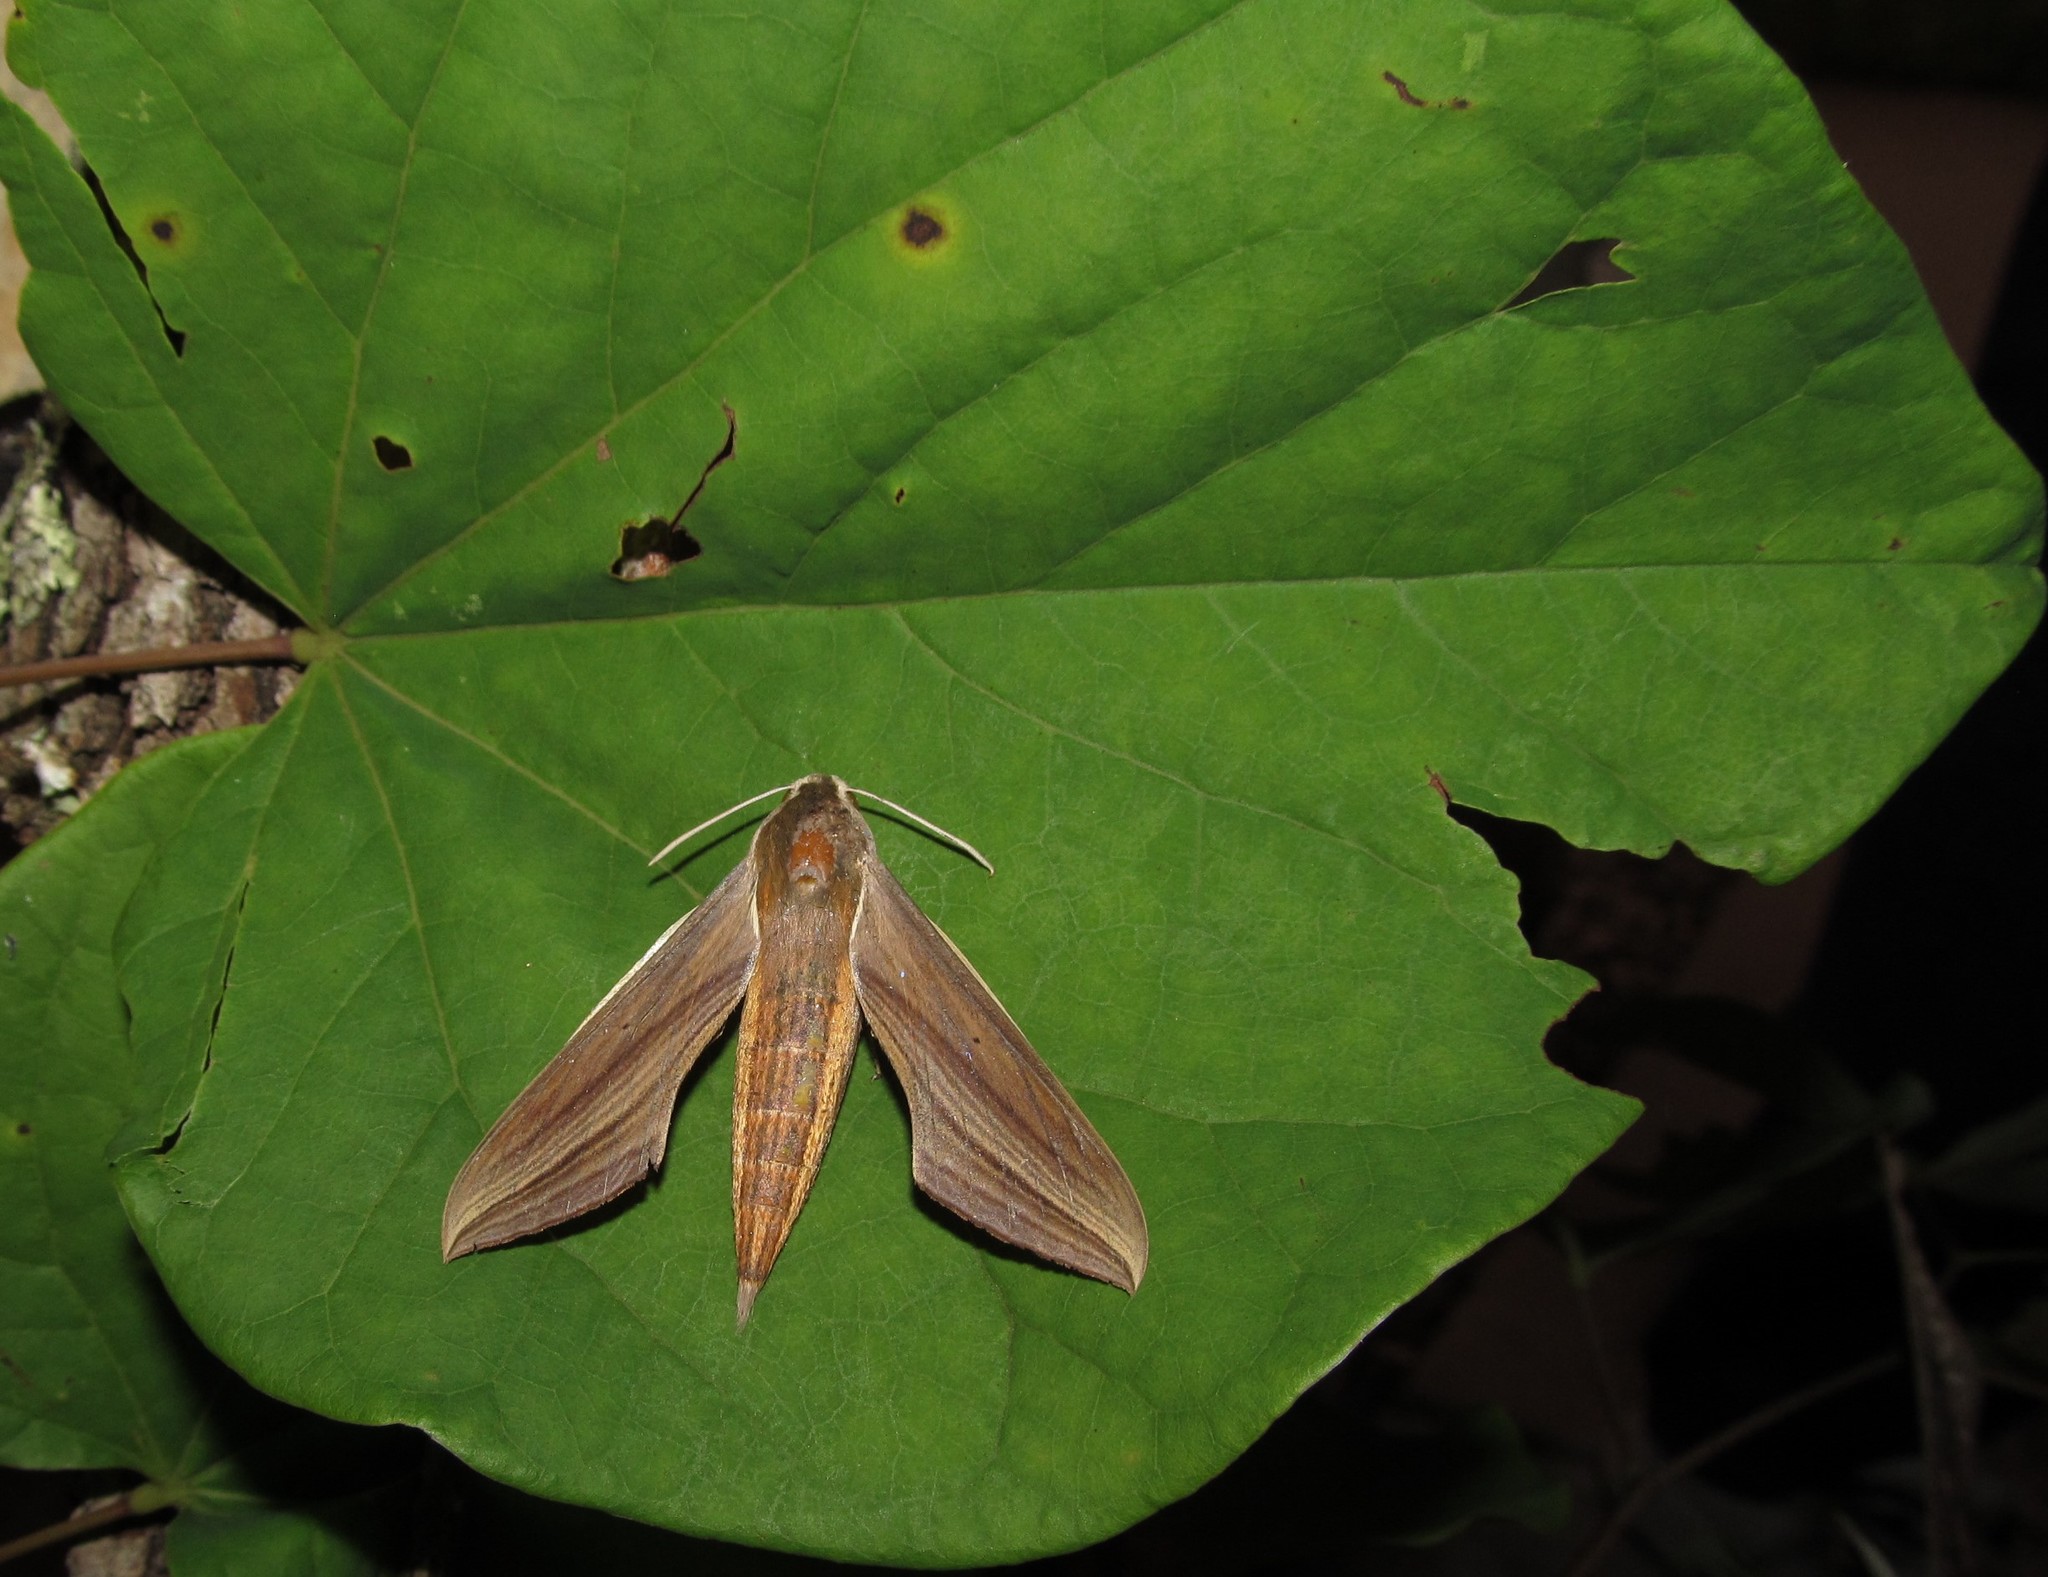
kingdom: Animalia
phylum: Arthropoda
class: Insecta
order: Lepidoptera
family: Sphingidae
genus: Xylophanes
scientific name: Xylophanes tersa
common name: Tersa sphinx
